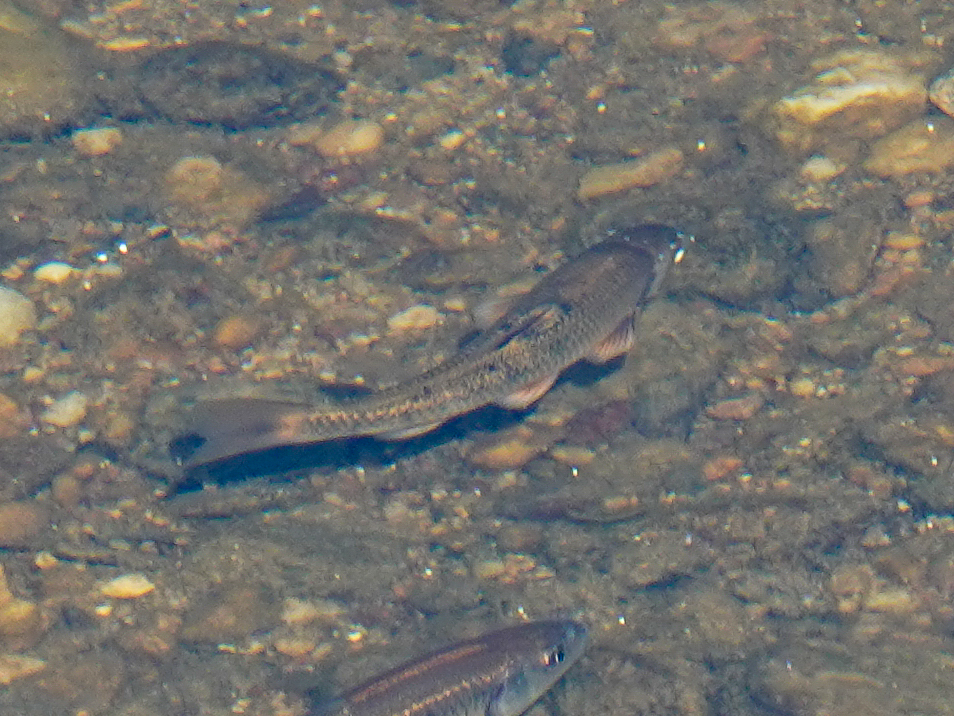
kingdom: Animalia
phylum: Chordata
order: Cypriniformes
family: Cyprinidae
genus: Campostoma
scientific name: Campostoma anomalum
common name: Central stoneroller
